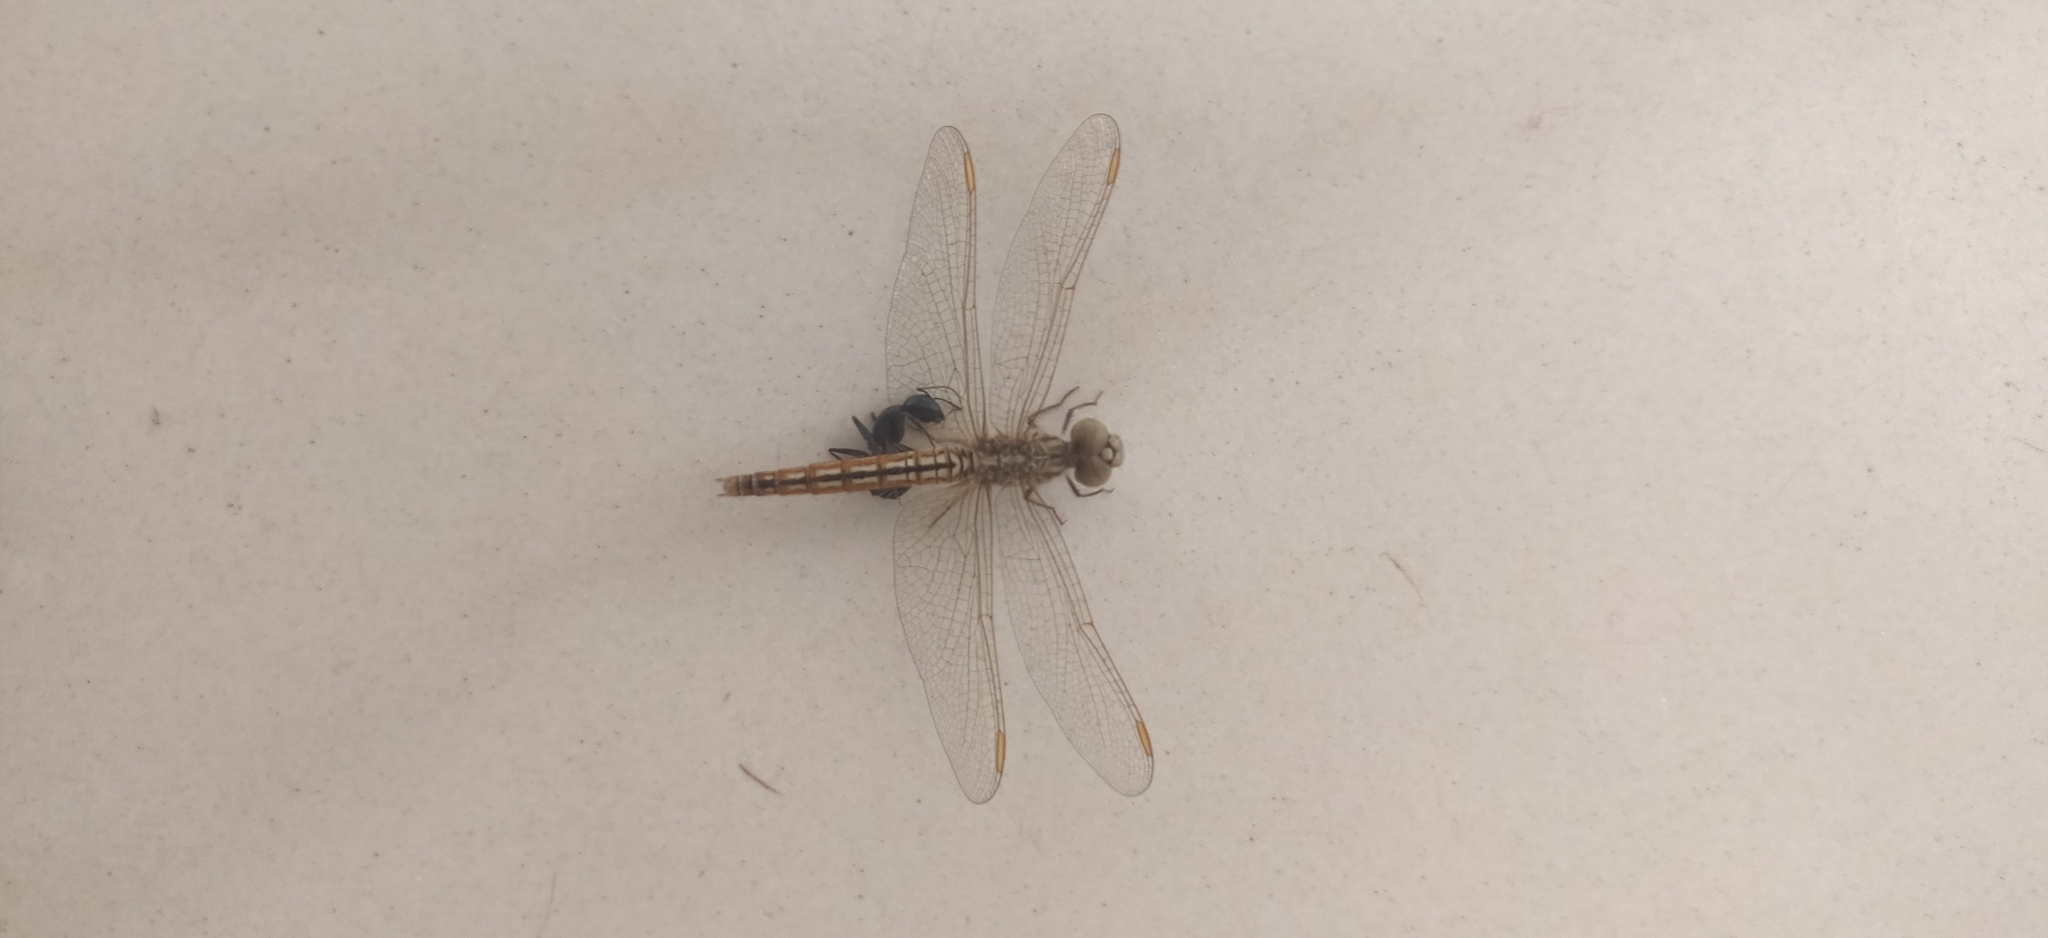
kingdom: Animalia
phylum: Arthropoda
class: Insecta
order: Odonata
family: Libellulidae
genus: Brachythemis
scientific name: Brachythemis contaminata
